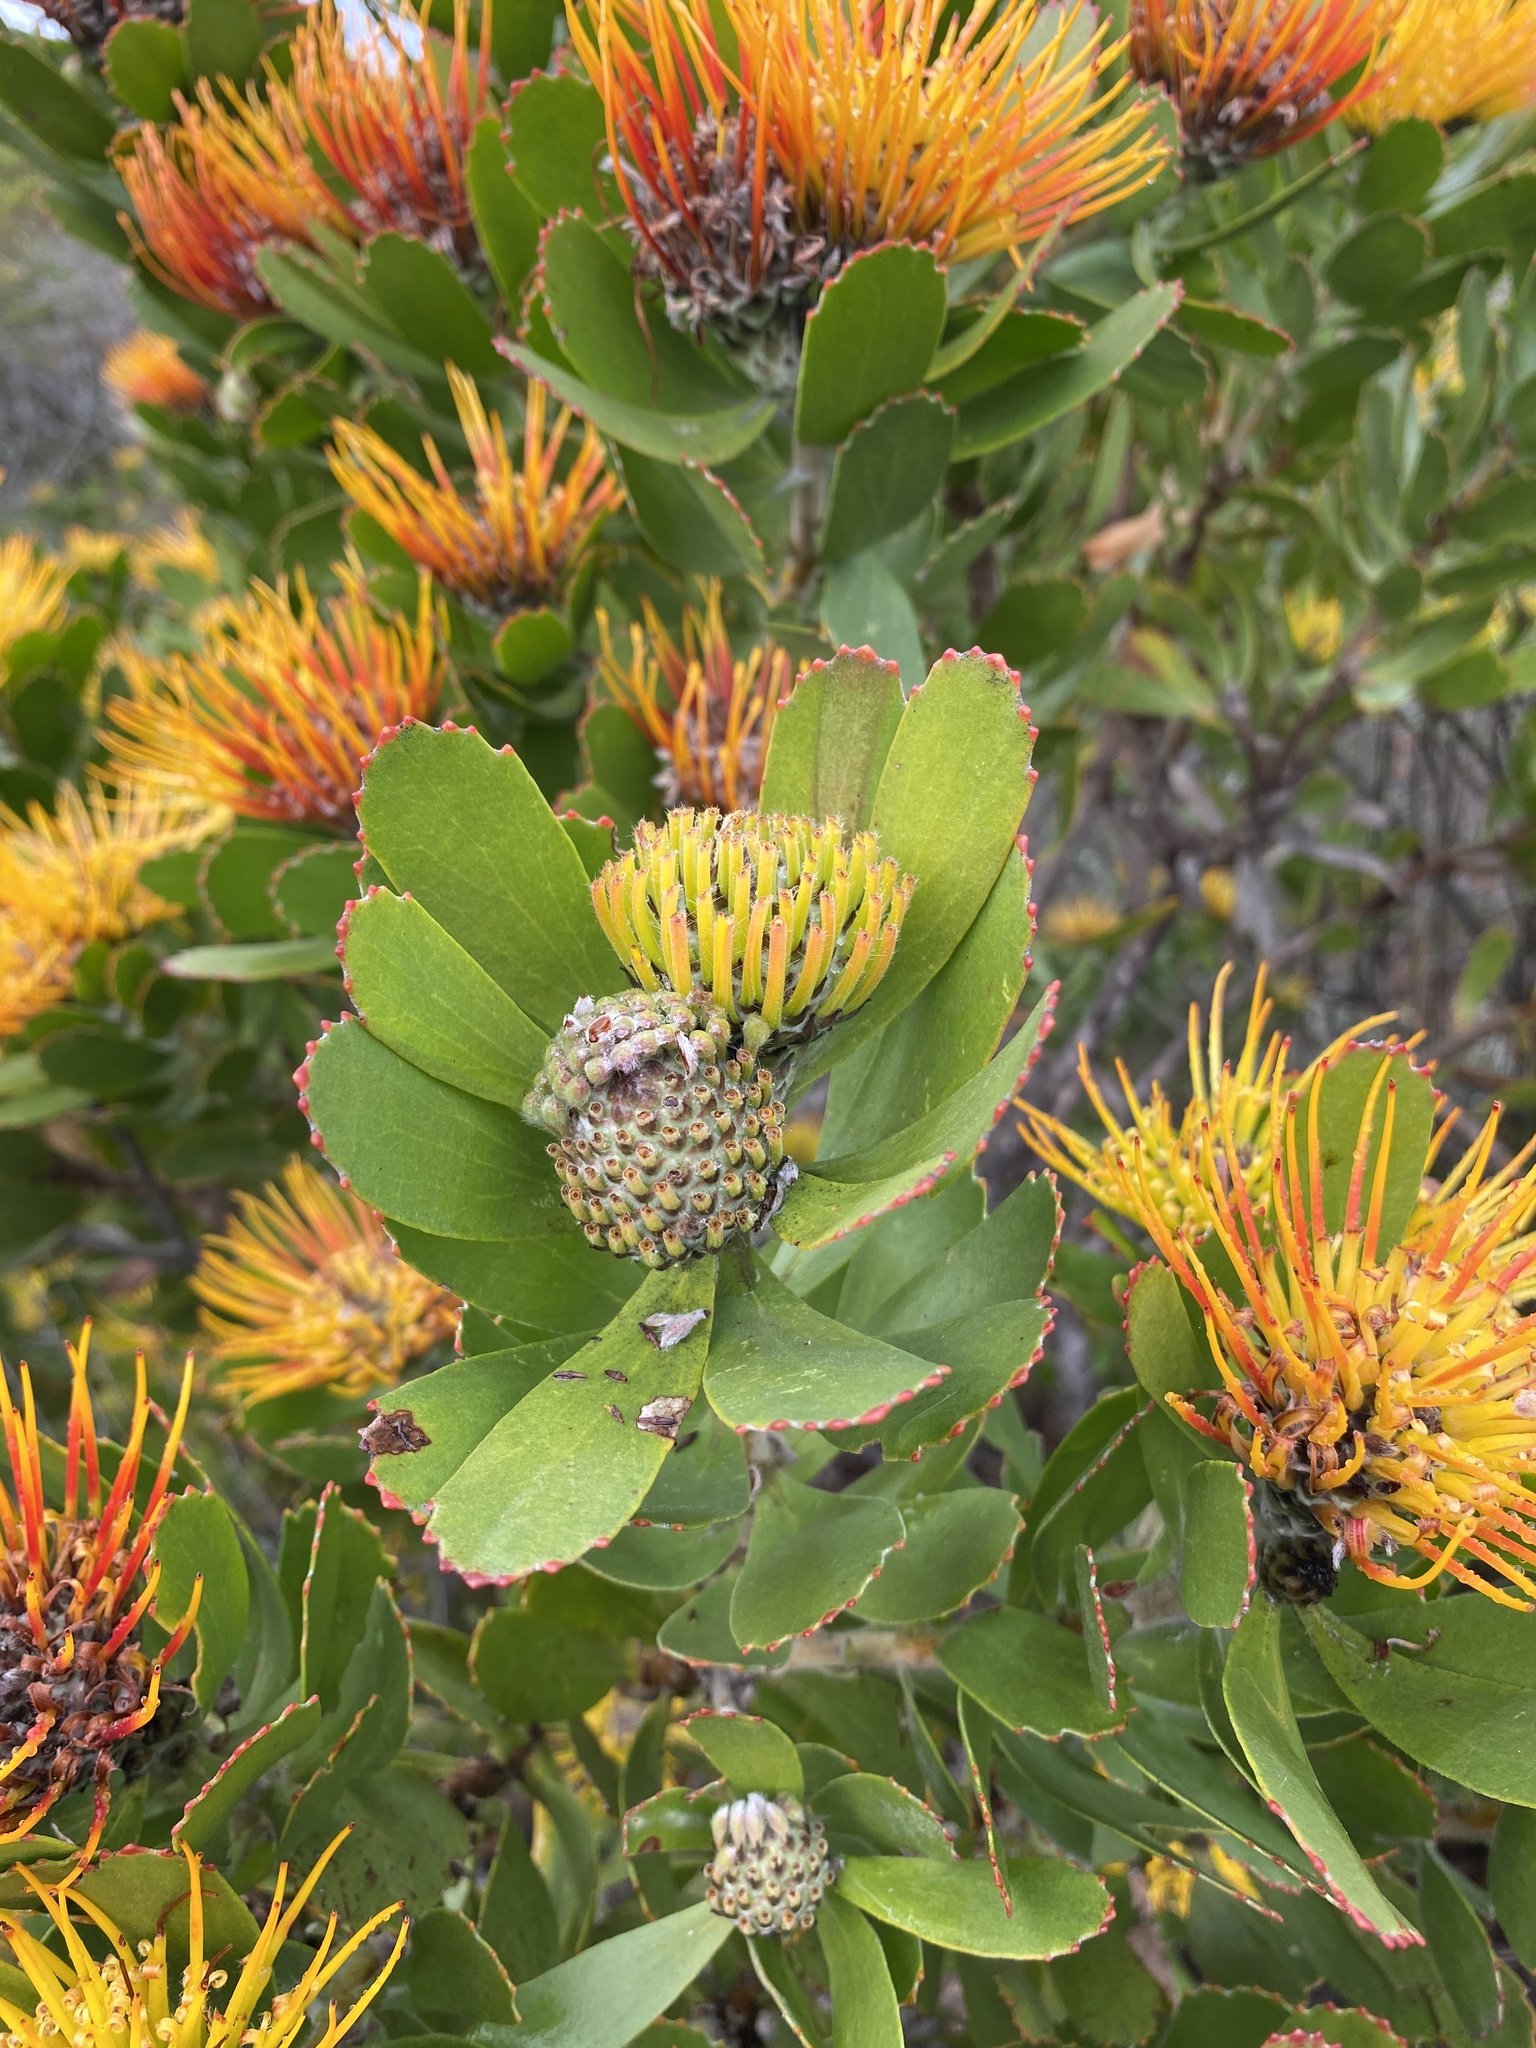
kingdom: Plantae
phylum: Tracheophyta
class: Magnoliopsida
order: Proteales
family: Proteaceae
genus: Leucospermum
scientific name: Leucospermum praecox
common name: Mossel bay pincushion
